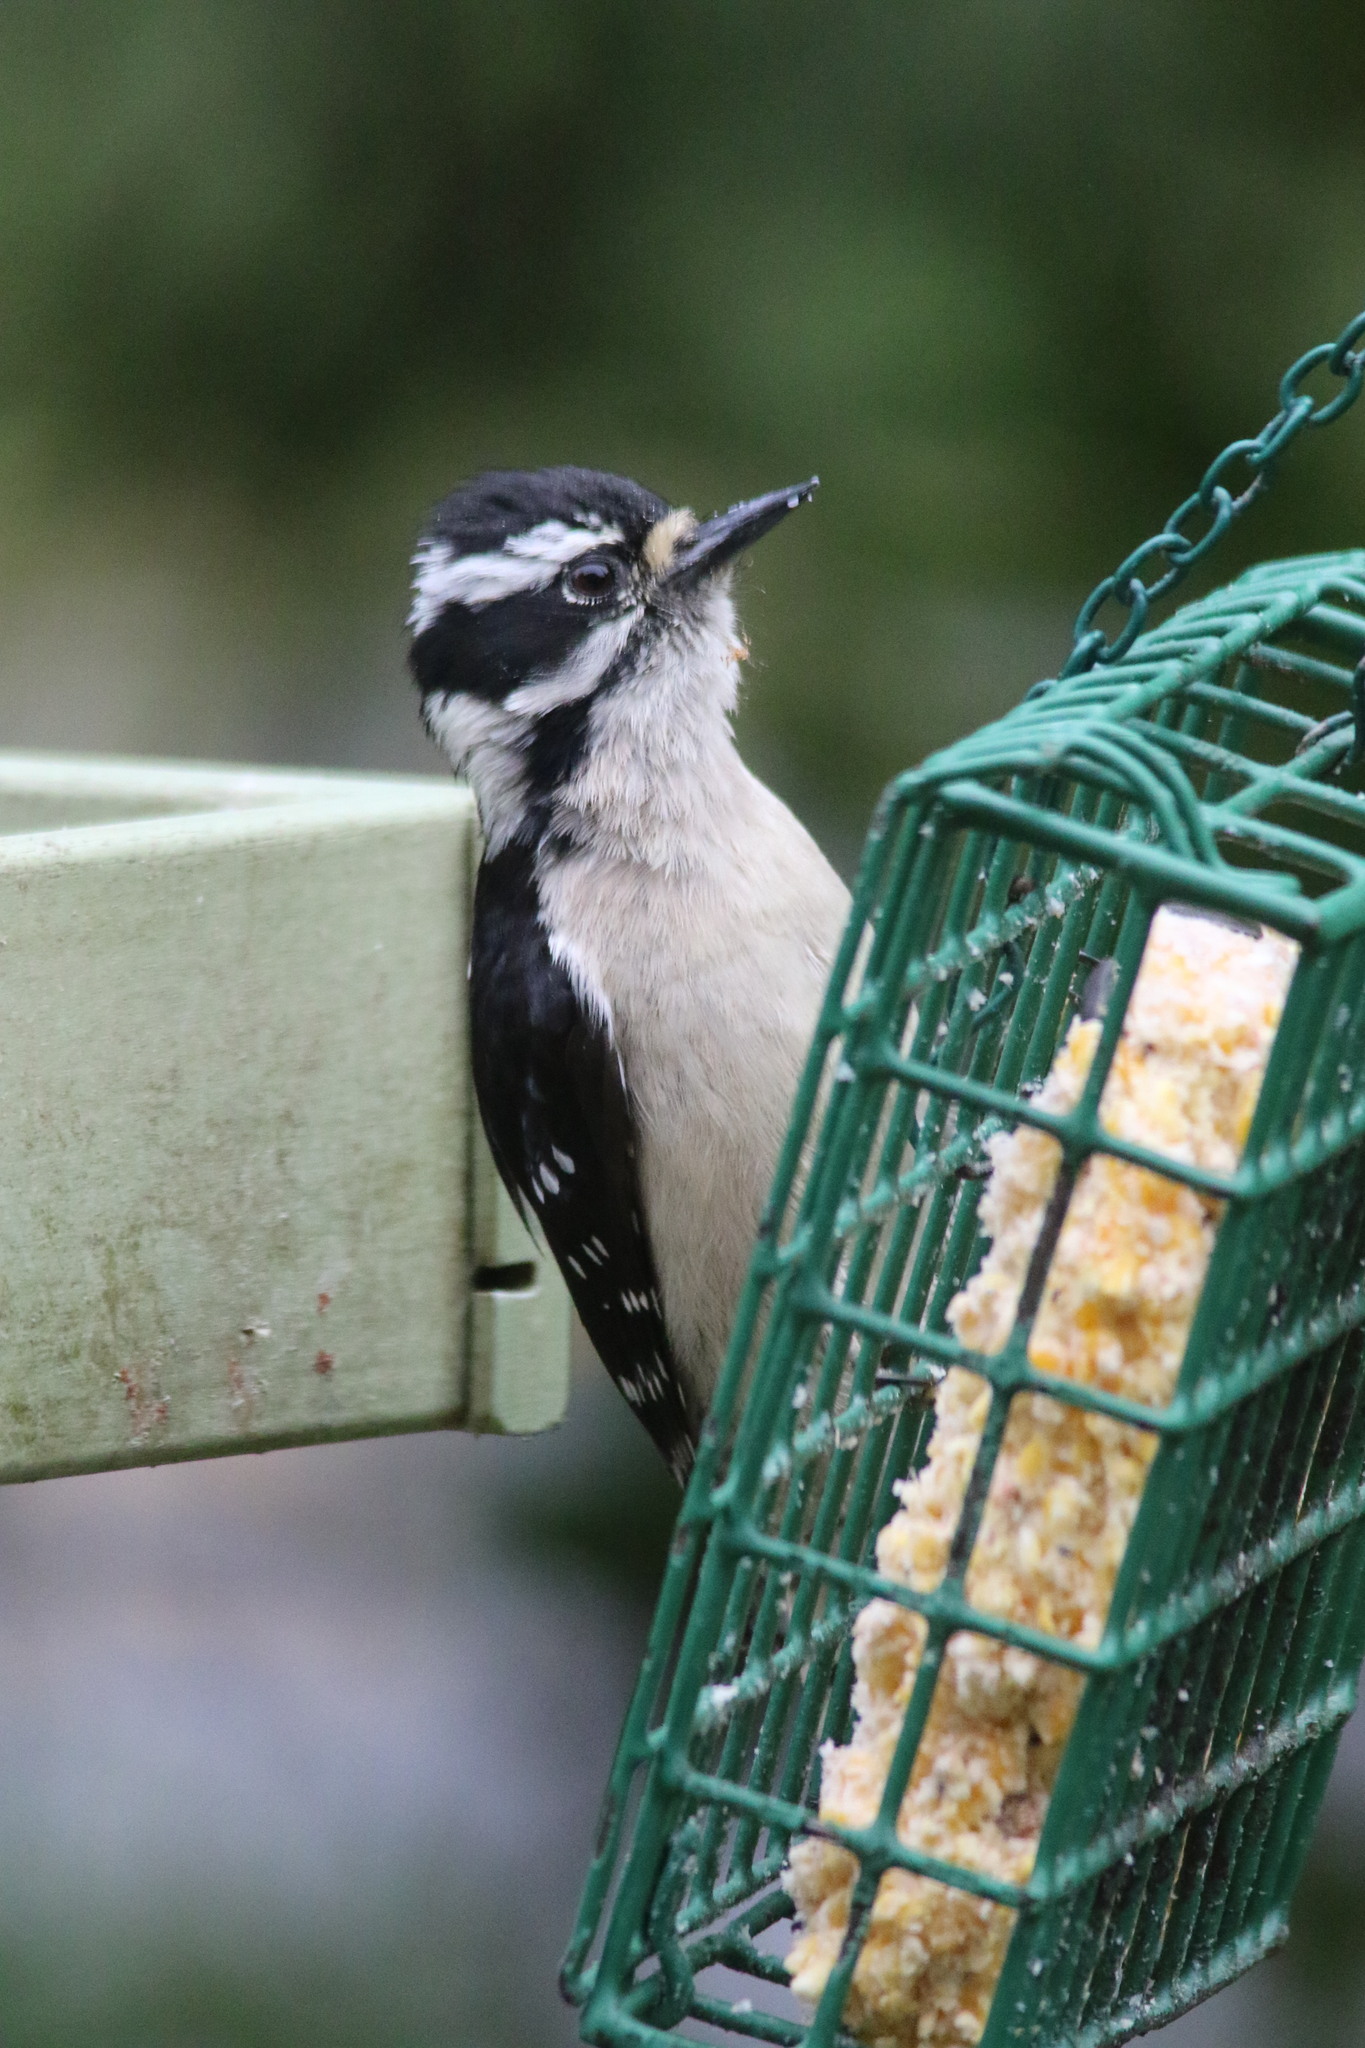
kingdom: Animalia
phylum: Chordata
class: Aves
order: Piciformes
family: Picidae
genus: Dryobates
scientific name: Dryobates pubescens
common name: Downy woodpecker
